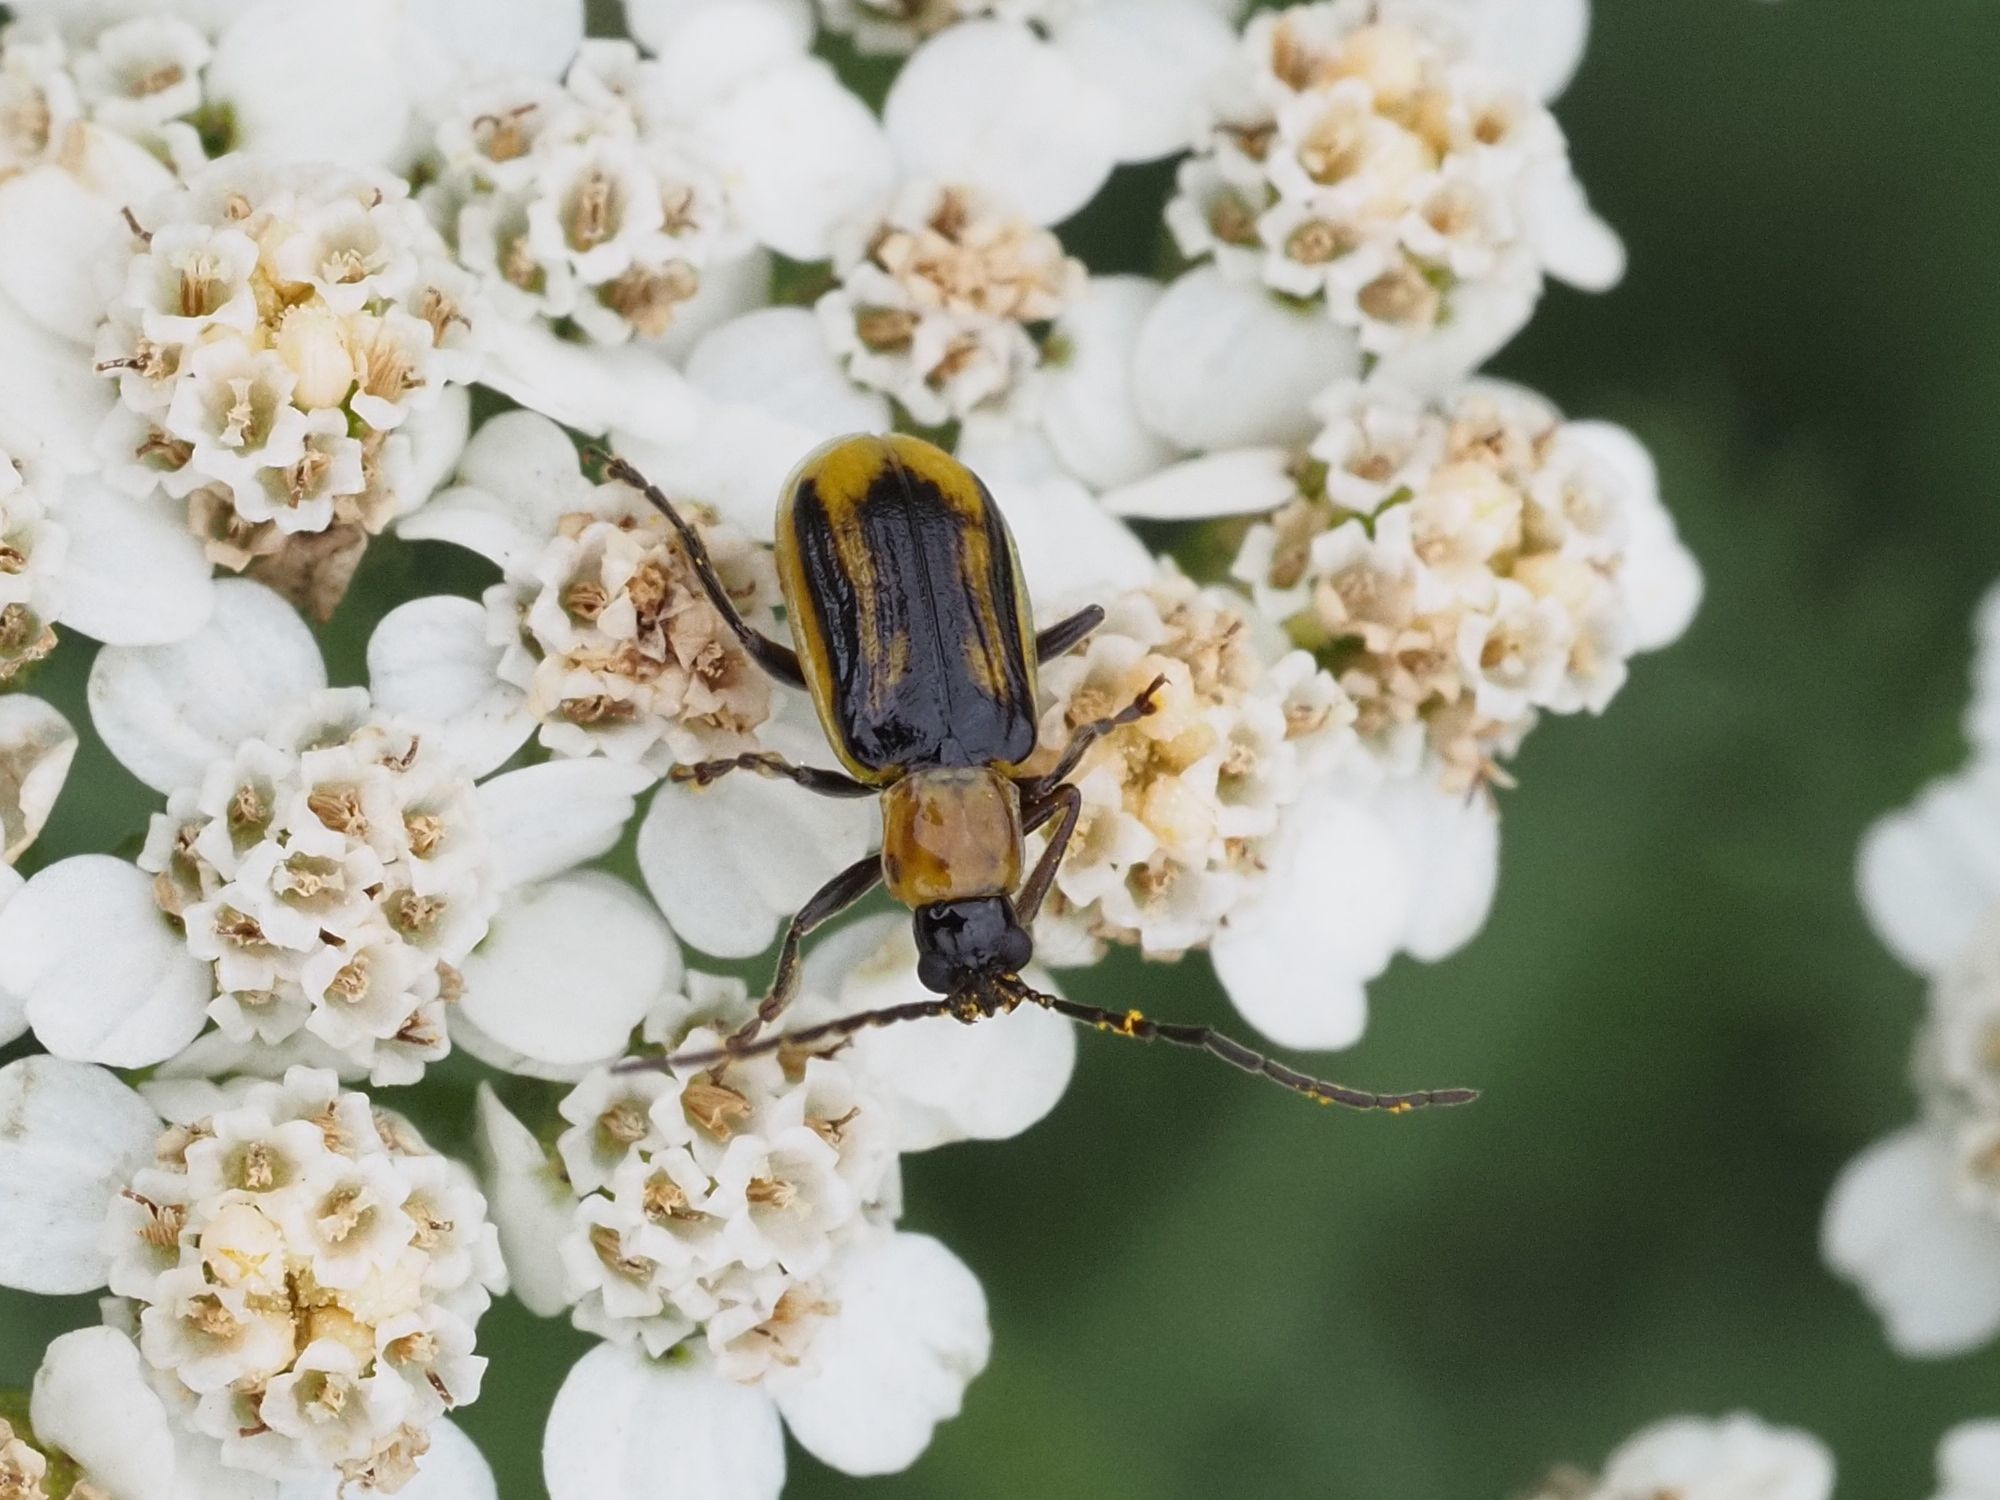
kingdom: Animalia
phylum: Arthropoda
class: Insecta
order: Coleoptera
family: Chrysomelidae
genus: Diabrotica
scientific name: Diabrotica virgifera
